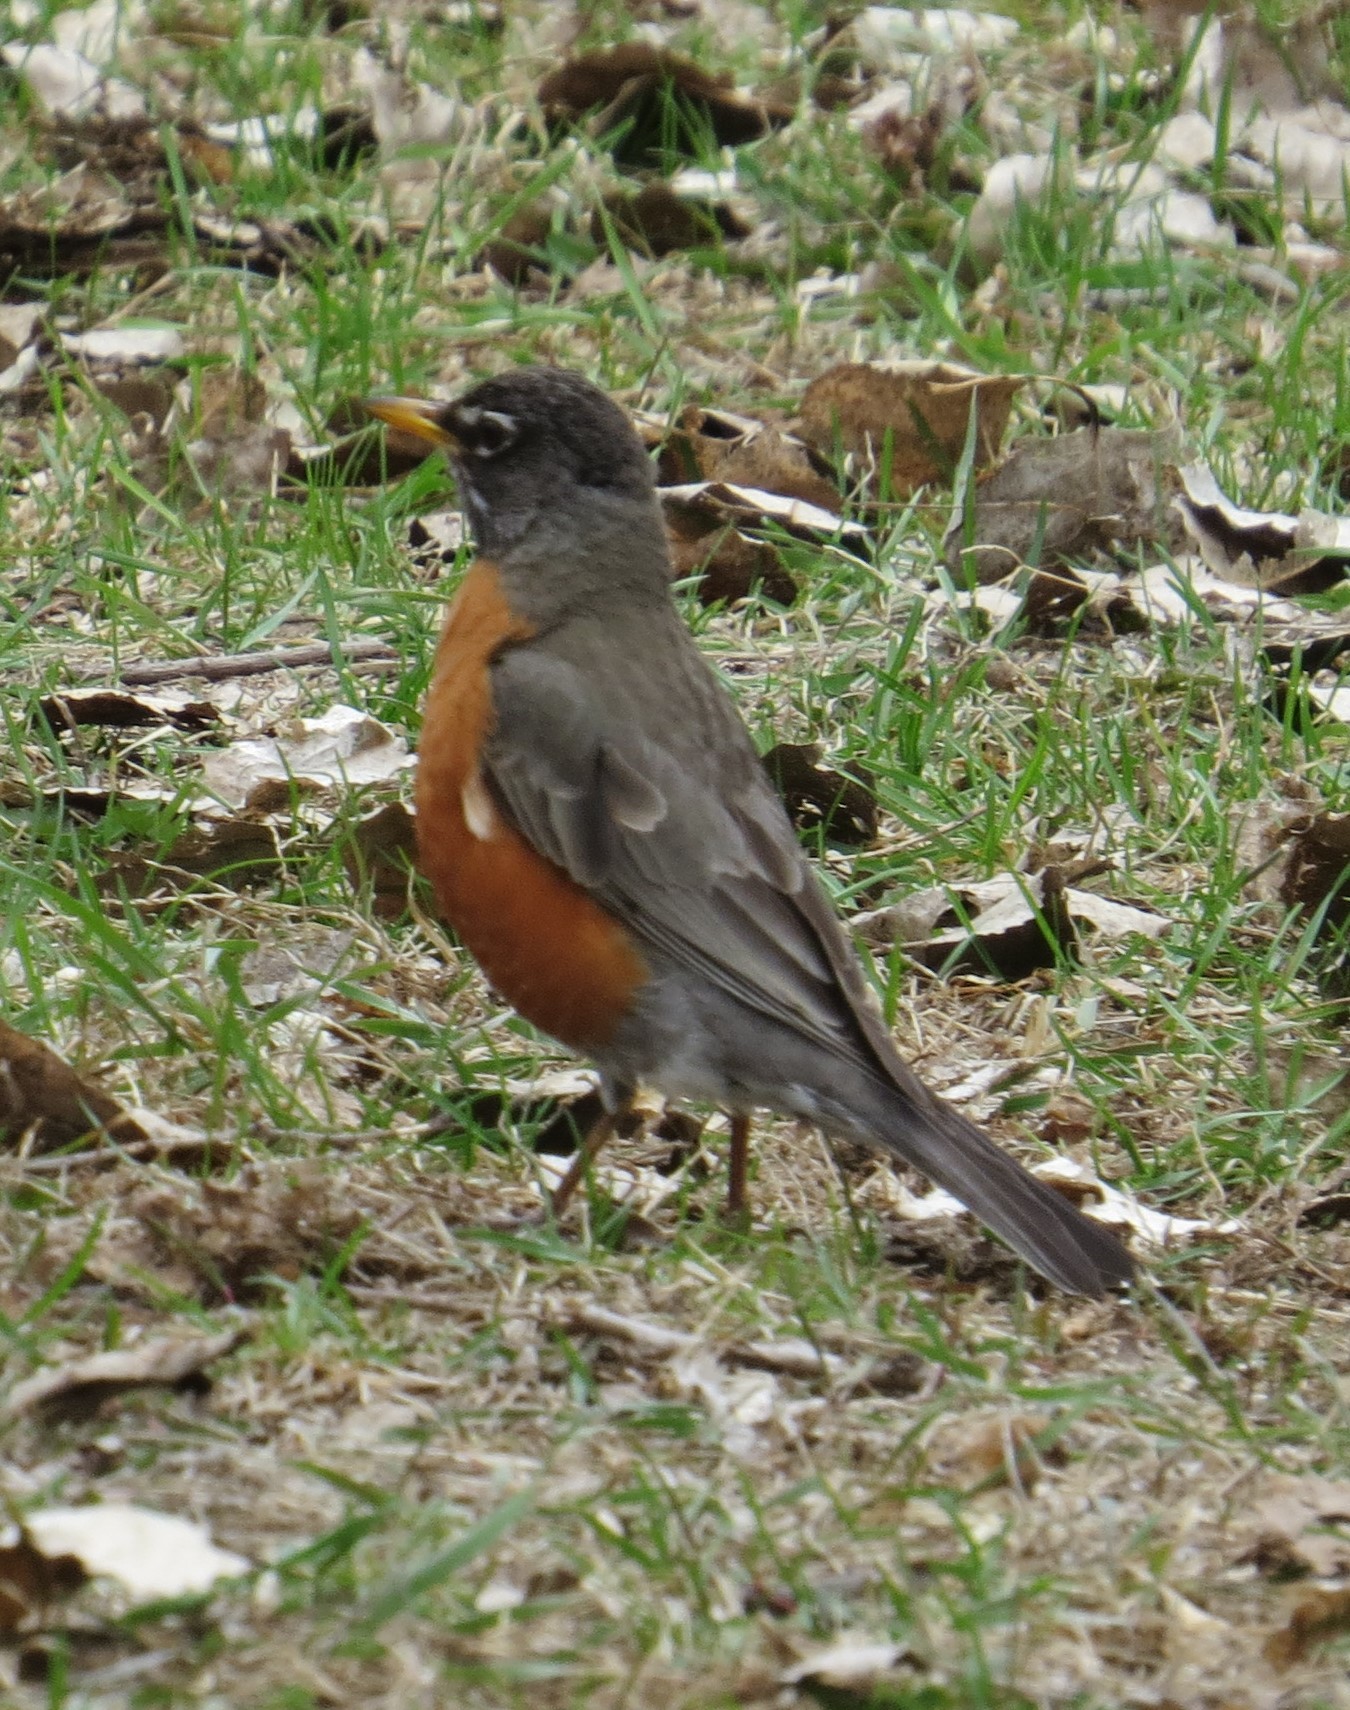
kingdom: Animalia
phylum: Chordata
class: Aves
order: Passeriformes
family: Turdidae
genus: Turdus
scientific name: Turdus migratorius
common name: American robin
